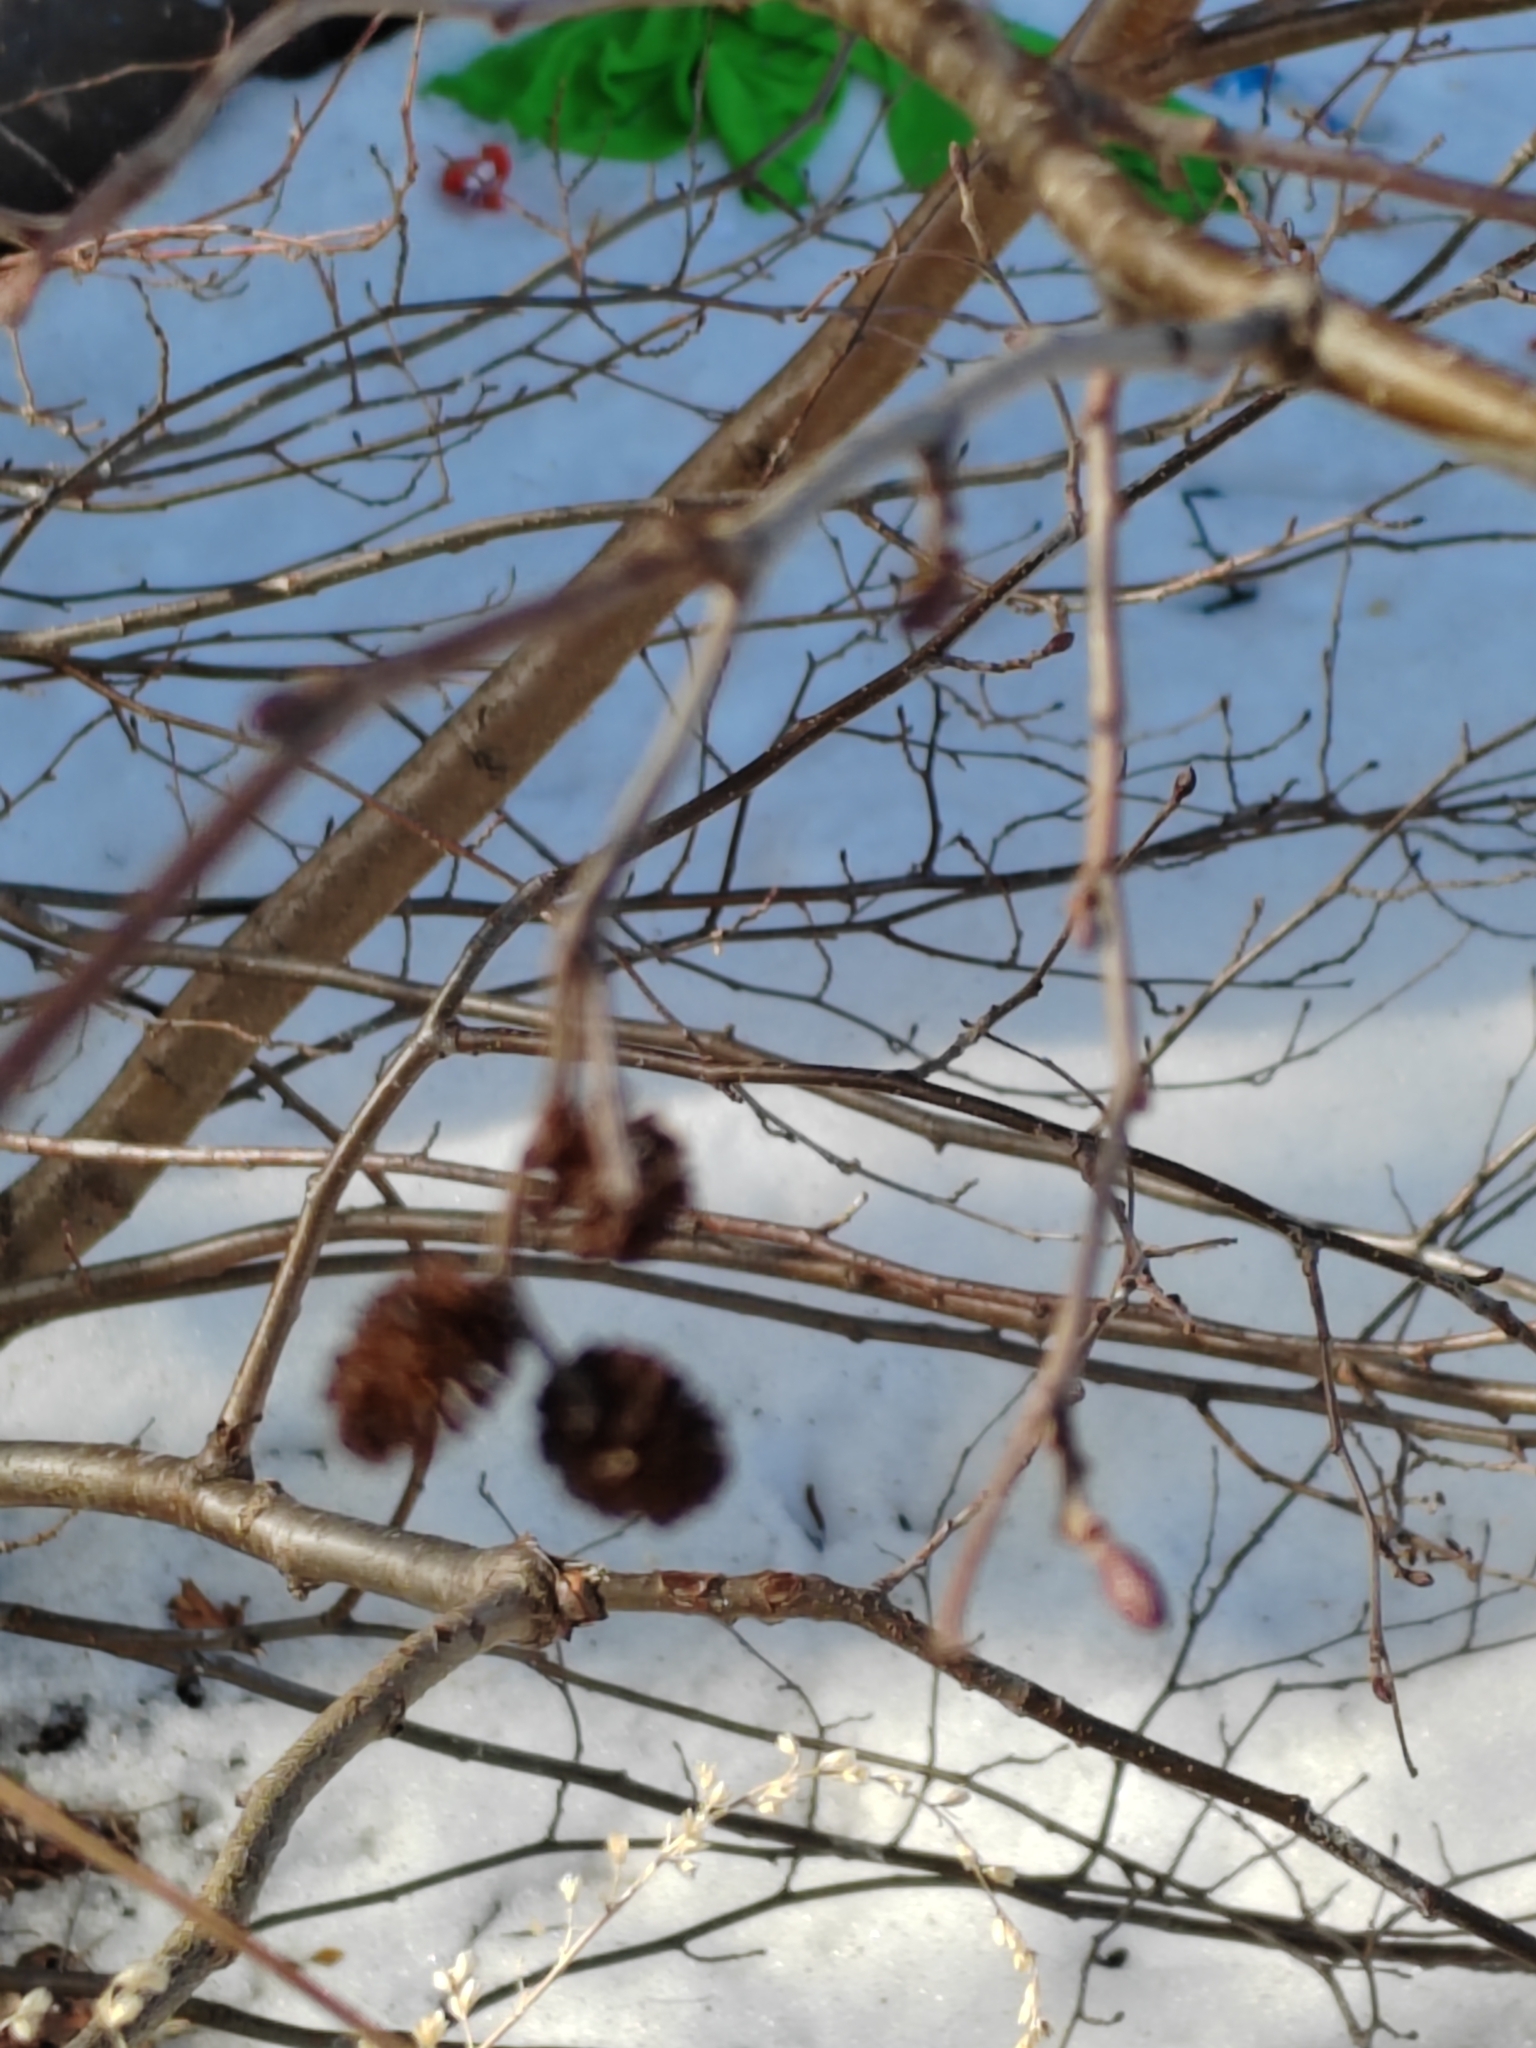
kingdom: Plantae
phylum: Tracheophyta
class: Magnoliopsida
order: Fagales
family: Betulaceae
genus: Alnus
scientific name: Alnus incana
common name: Grey alder
